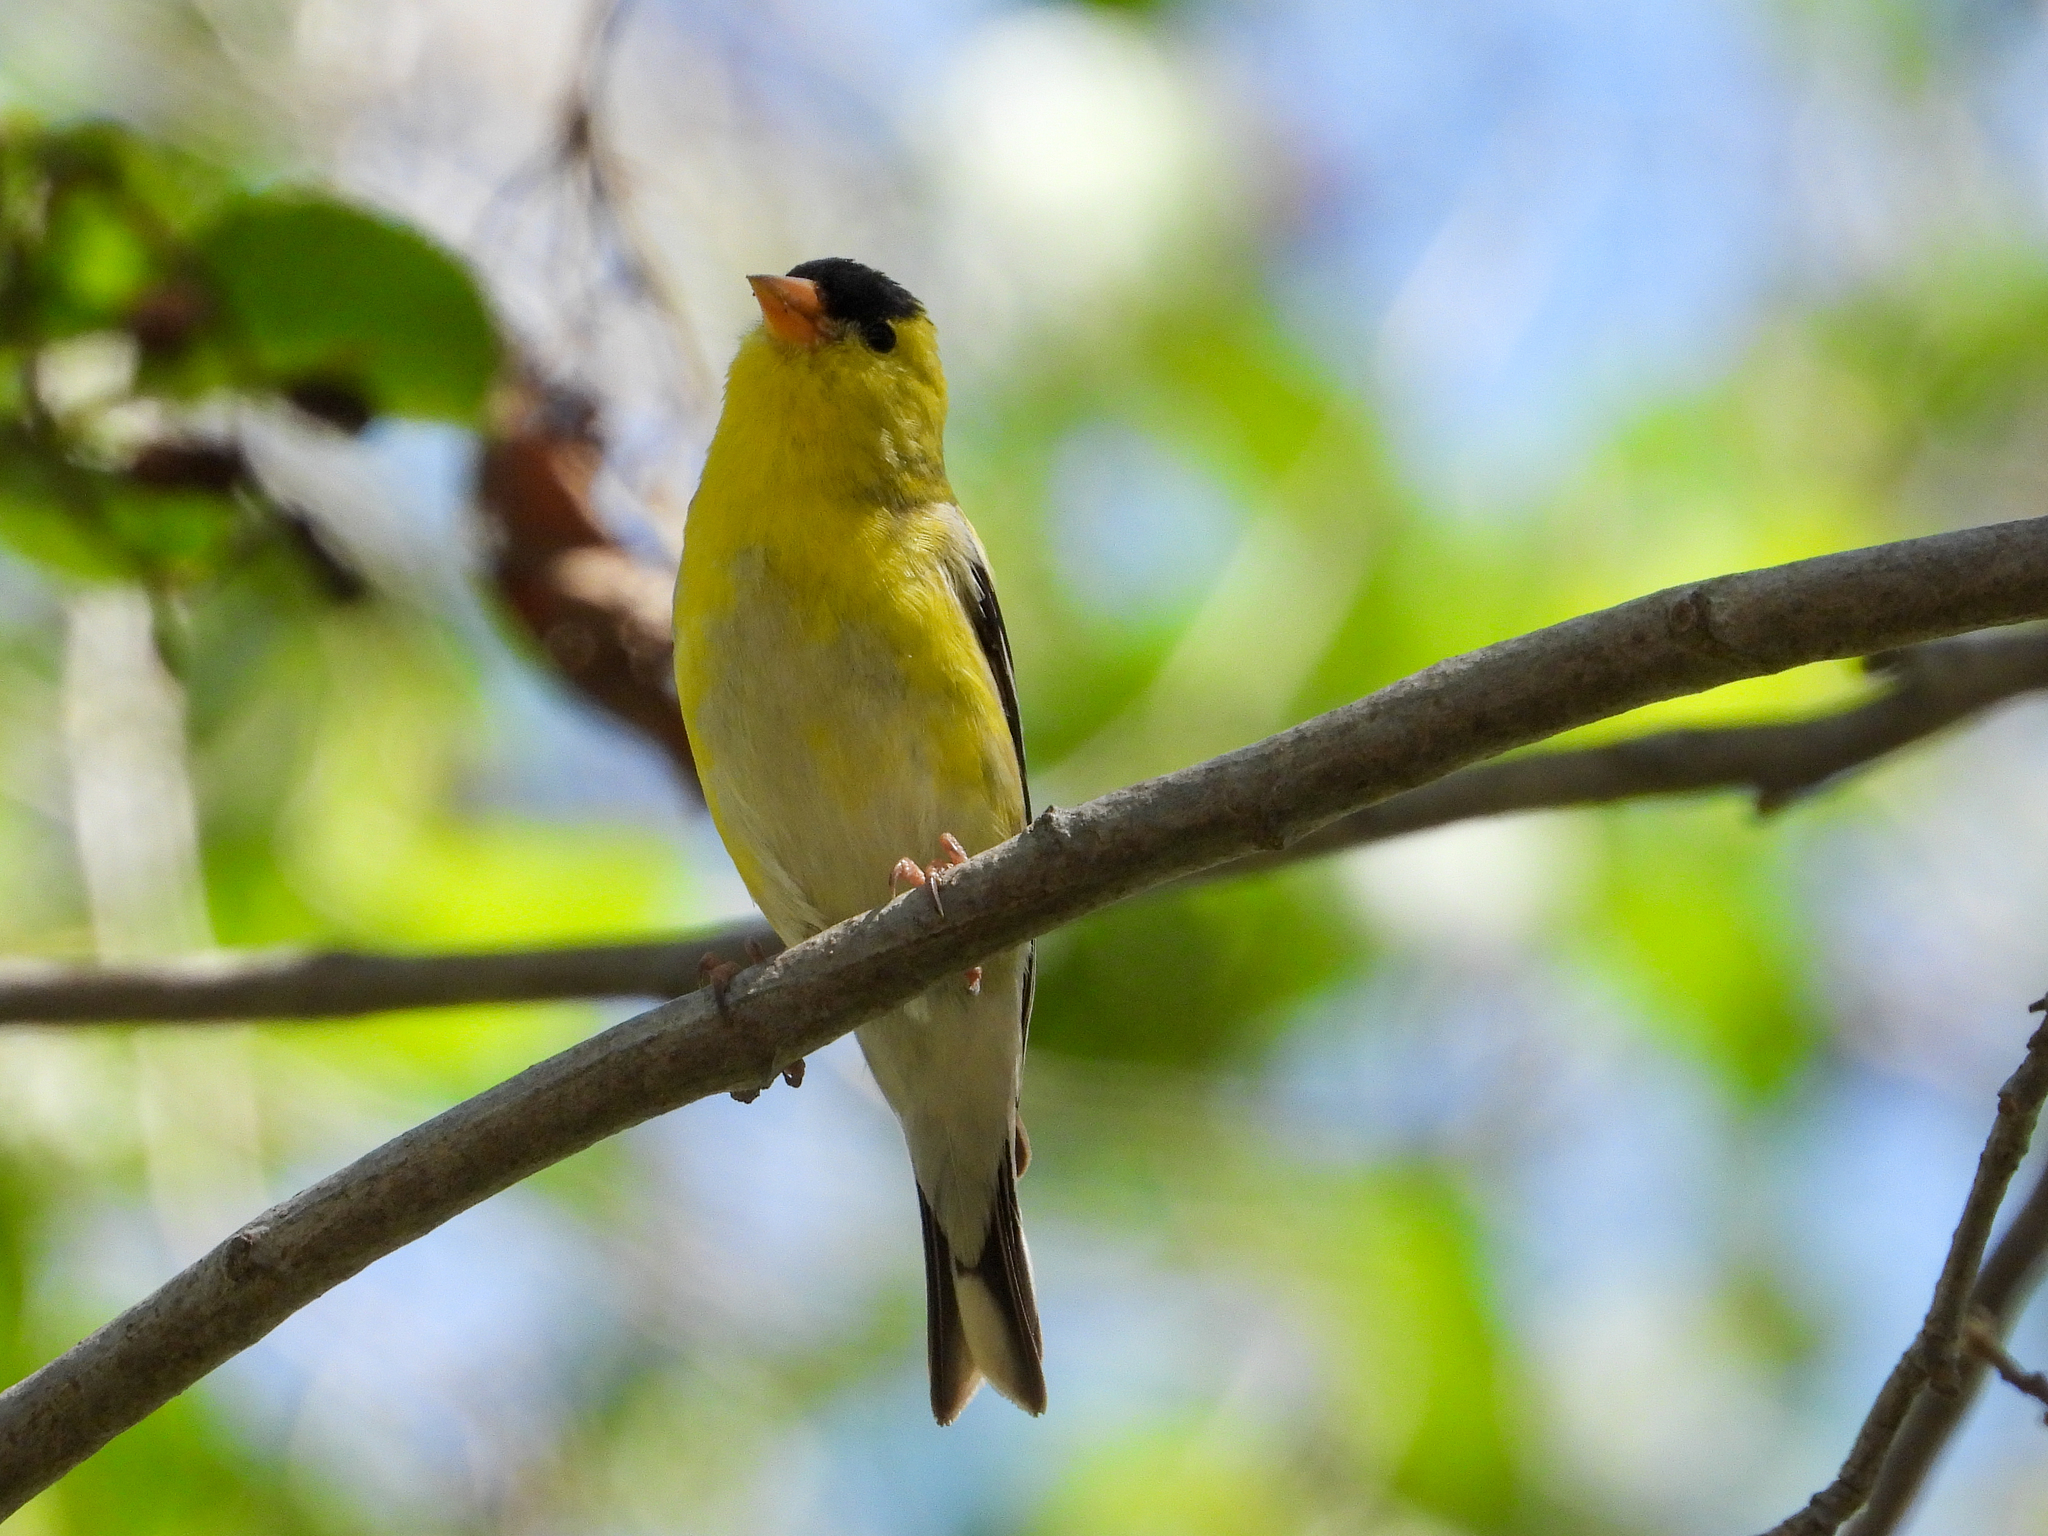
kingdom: Animalia
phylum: Chordata
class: Aves
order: Passeriformes
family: Fringillidae
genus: Spinus
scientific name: Spinus tristis
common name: American goldfinch
